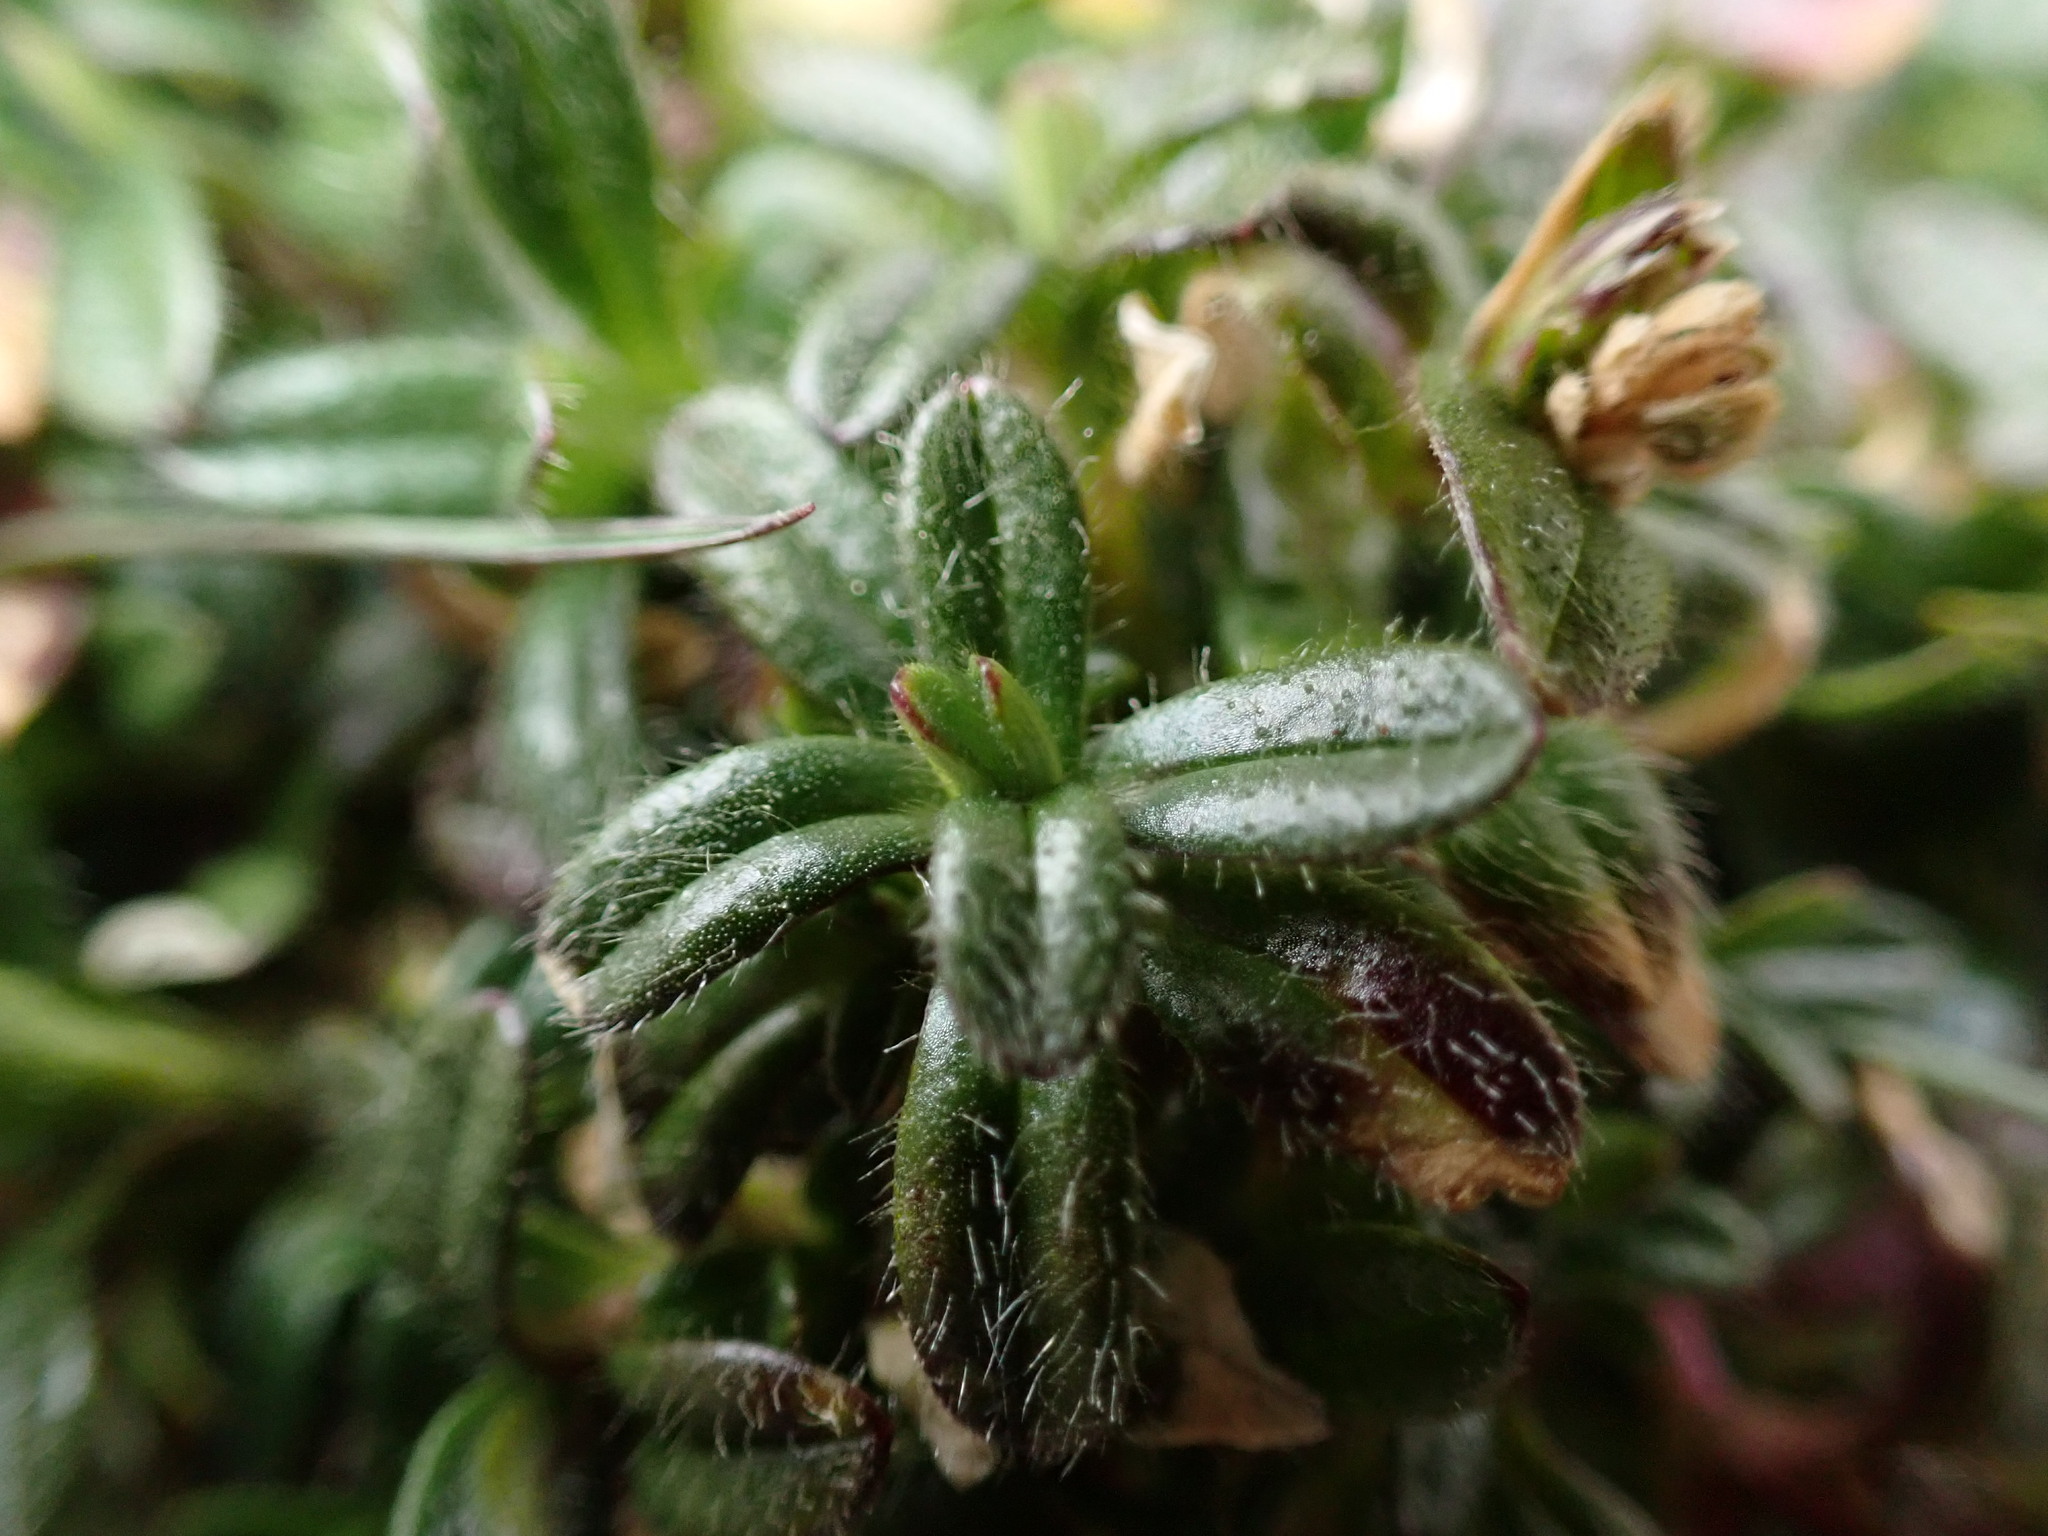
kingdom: Plantae
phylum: Tracheophyta
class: Magnoliopsida
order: Caryophyllales
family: Caryophyllaceae
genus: Cerastium
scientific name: Cerastium fontanum
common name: Common mouse-ear
